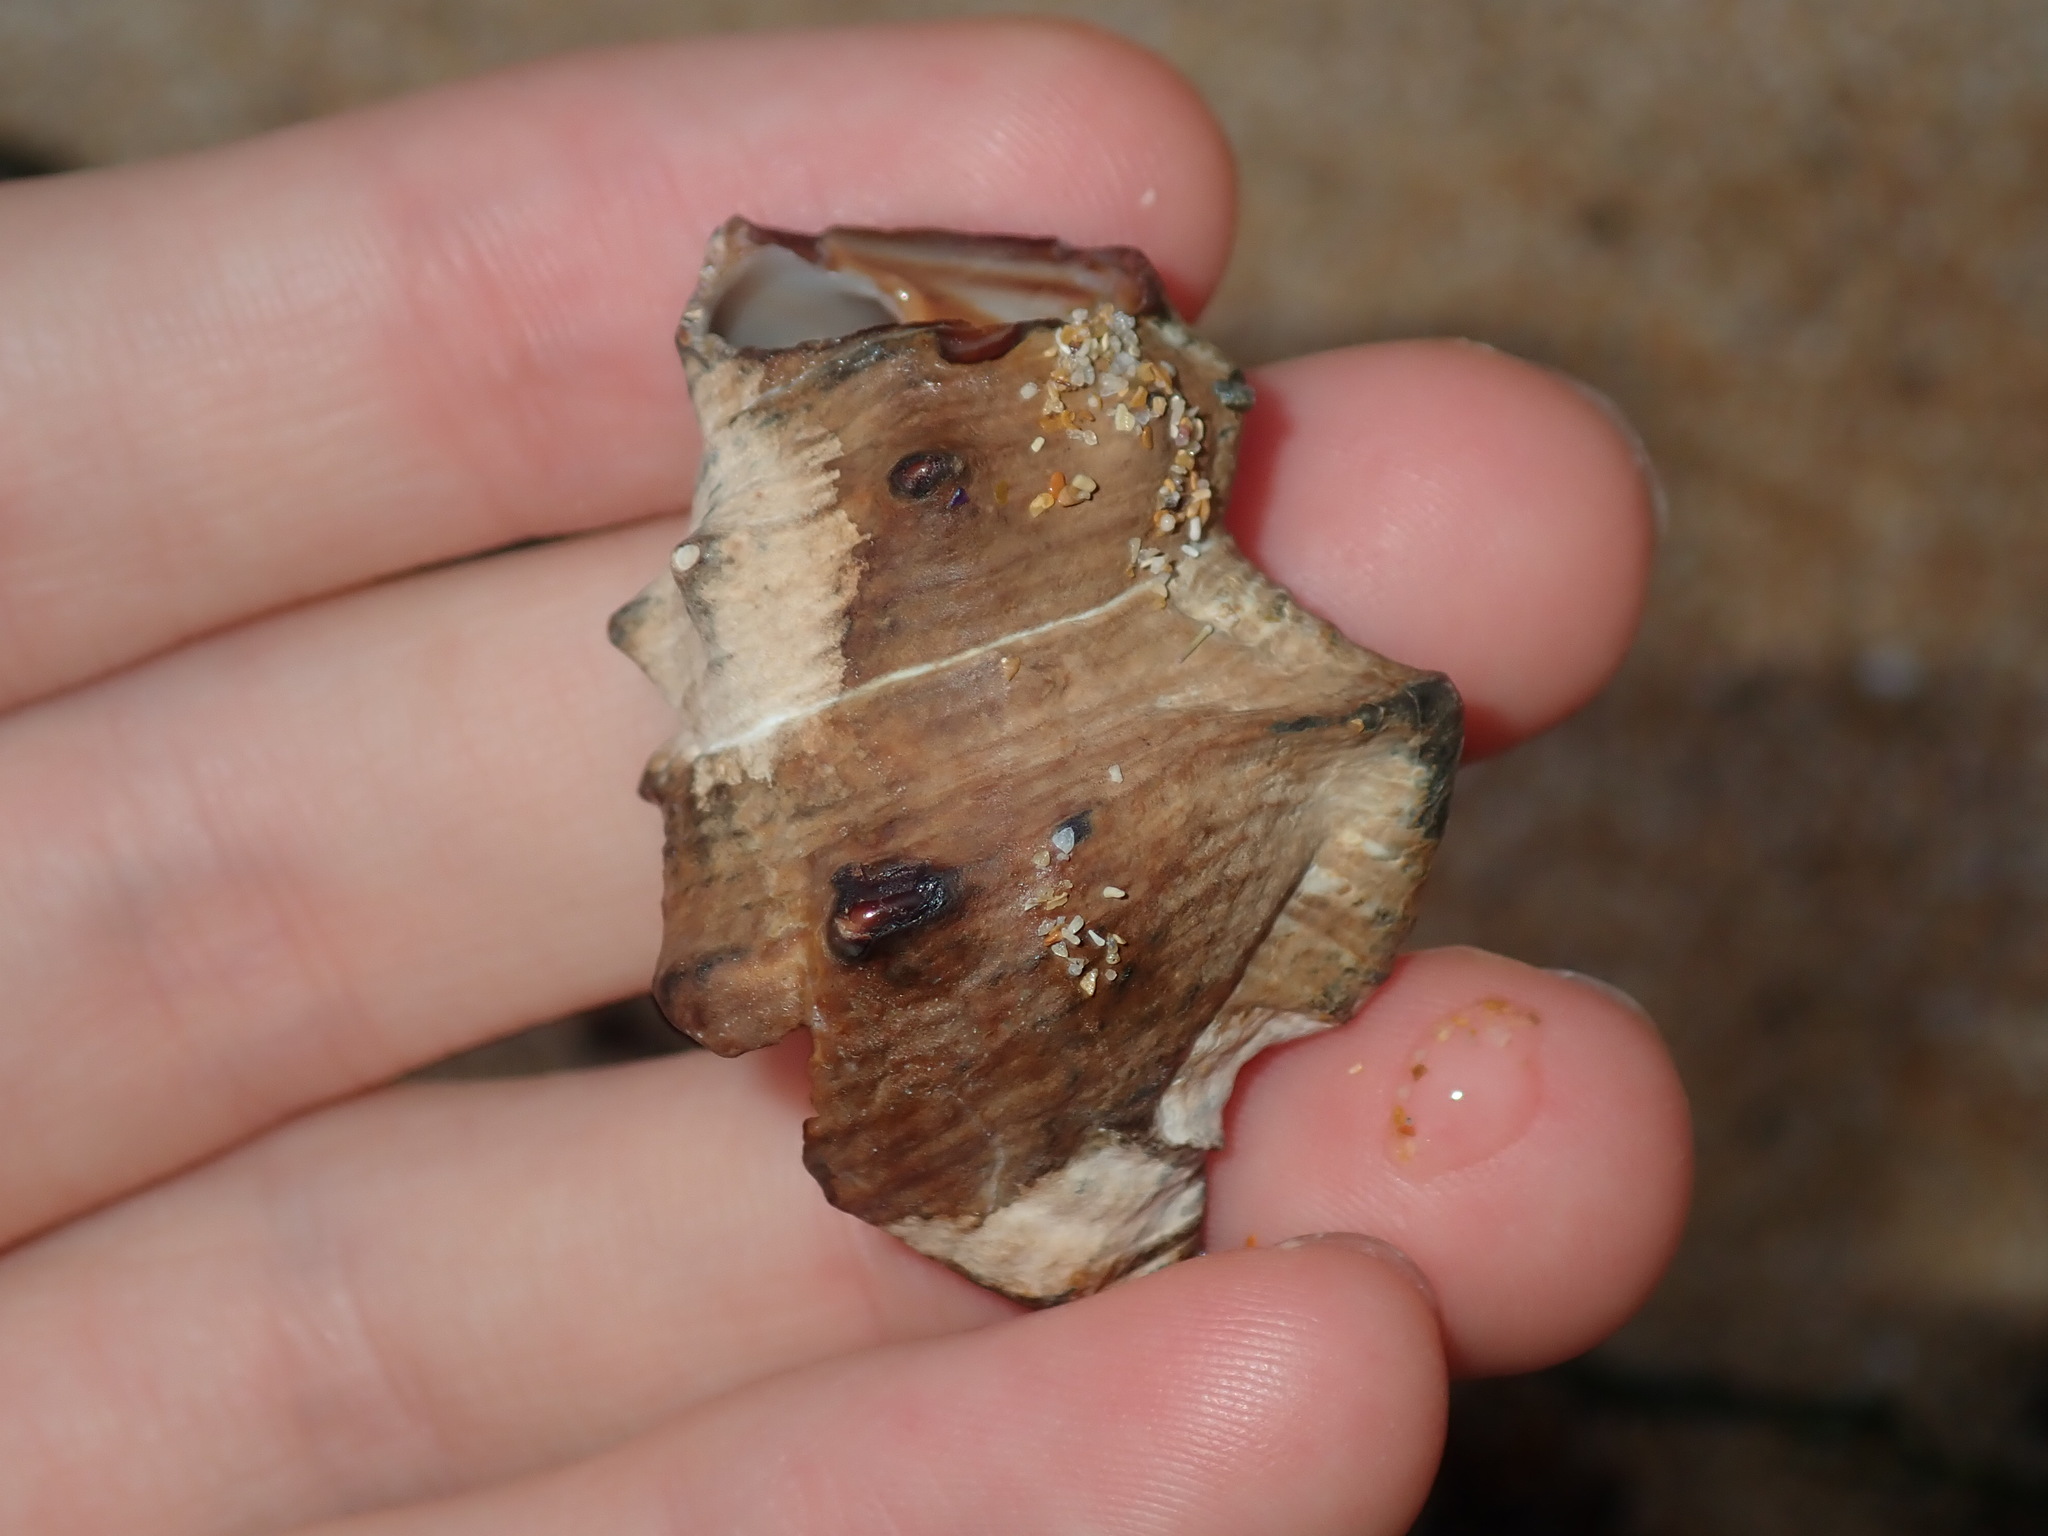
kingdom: Animalia
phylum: Mollusca
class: Gastropoda
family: Batillariidae
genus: Pyrazus
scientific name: Pyrazus ebeninus
